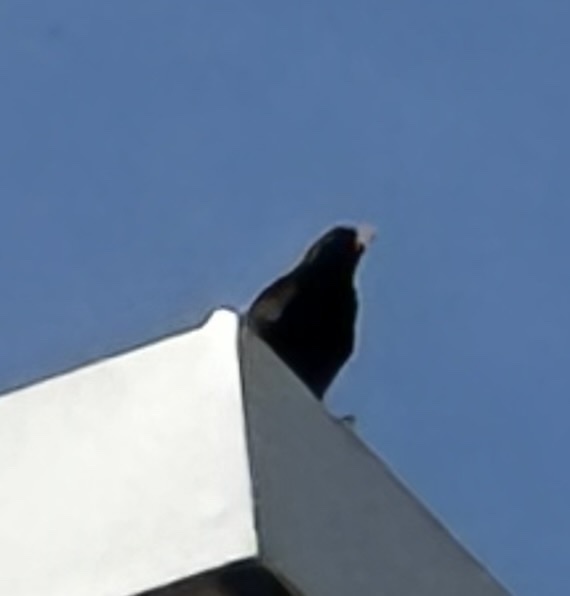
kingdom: Animalia
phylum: Chordata
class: Aves
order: Passeriformes
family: Turdidae
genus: Turdus
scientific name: Turdus merula
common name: Common blackbird
